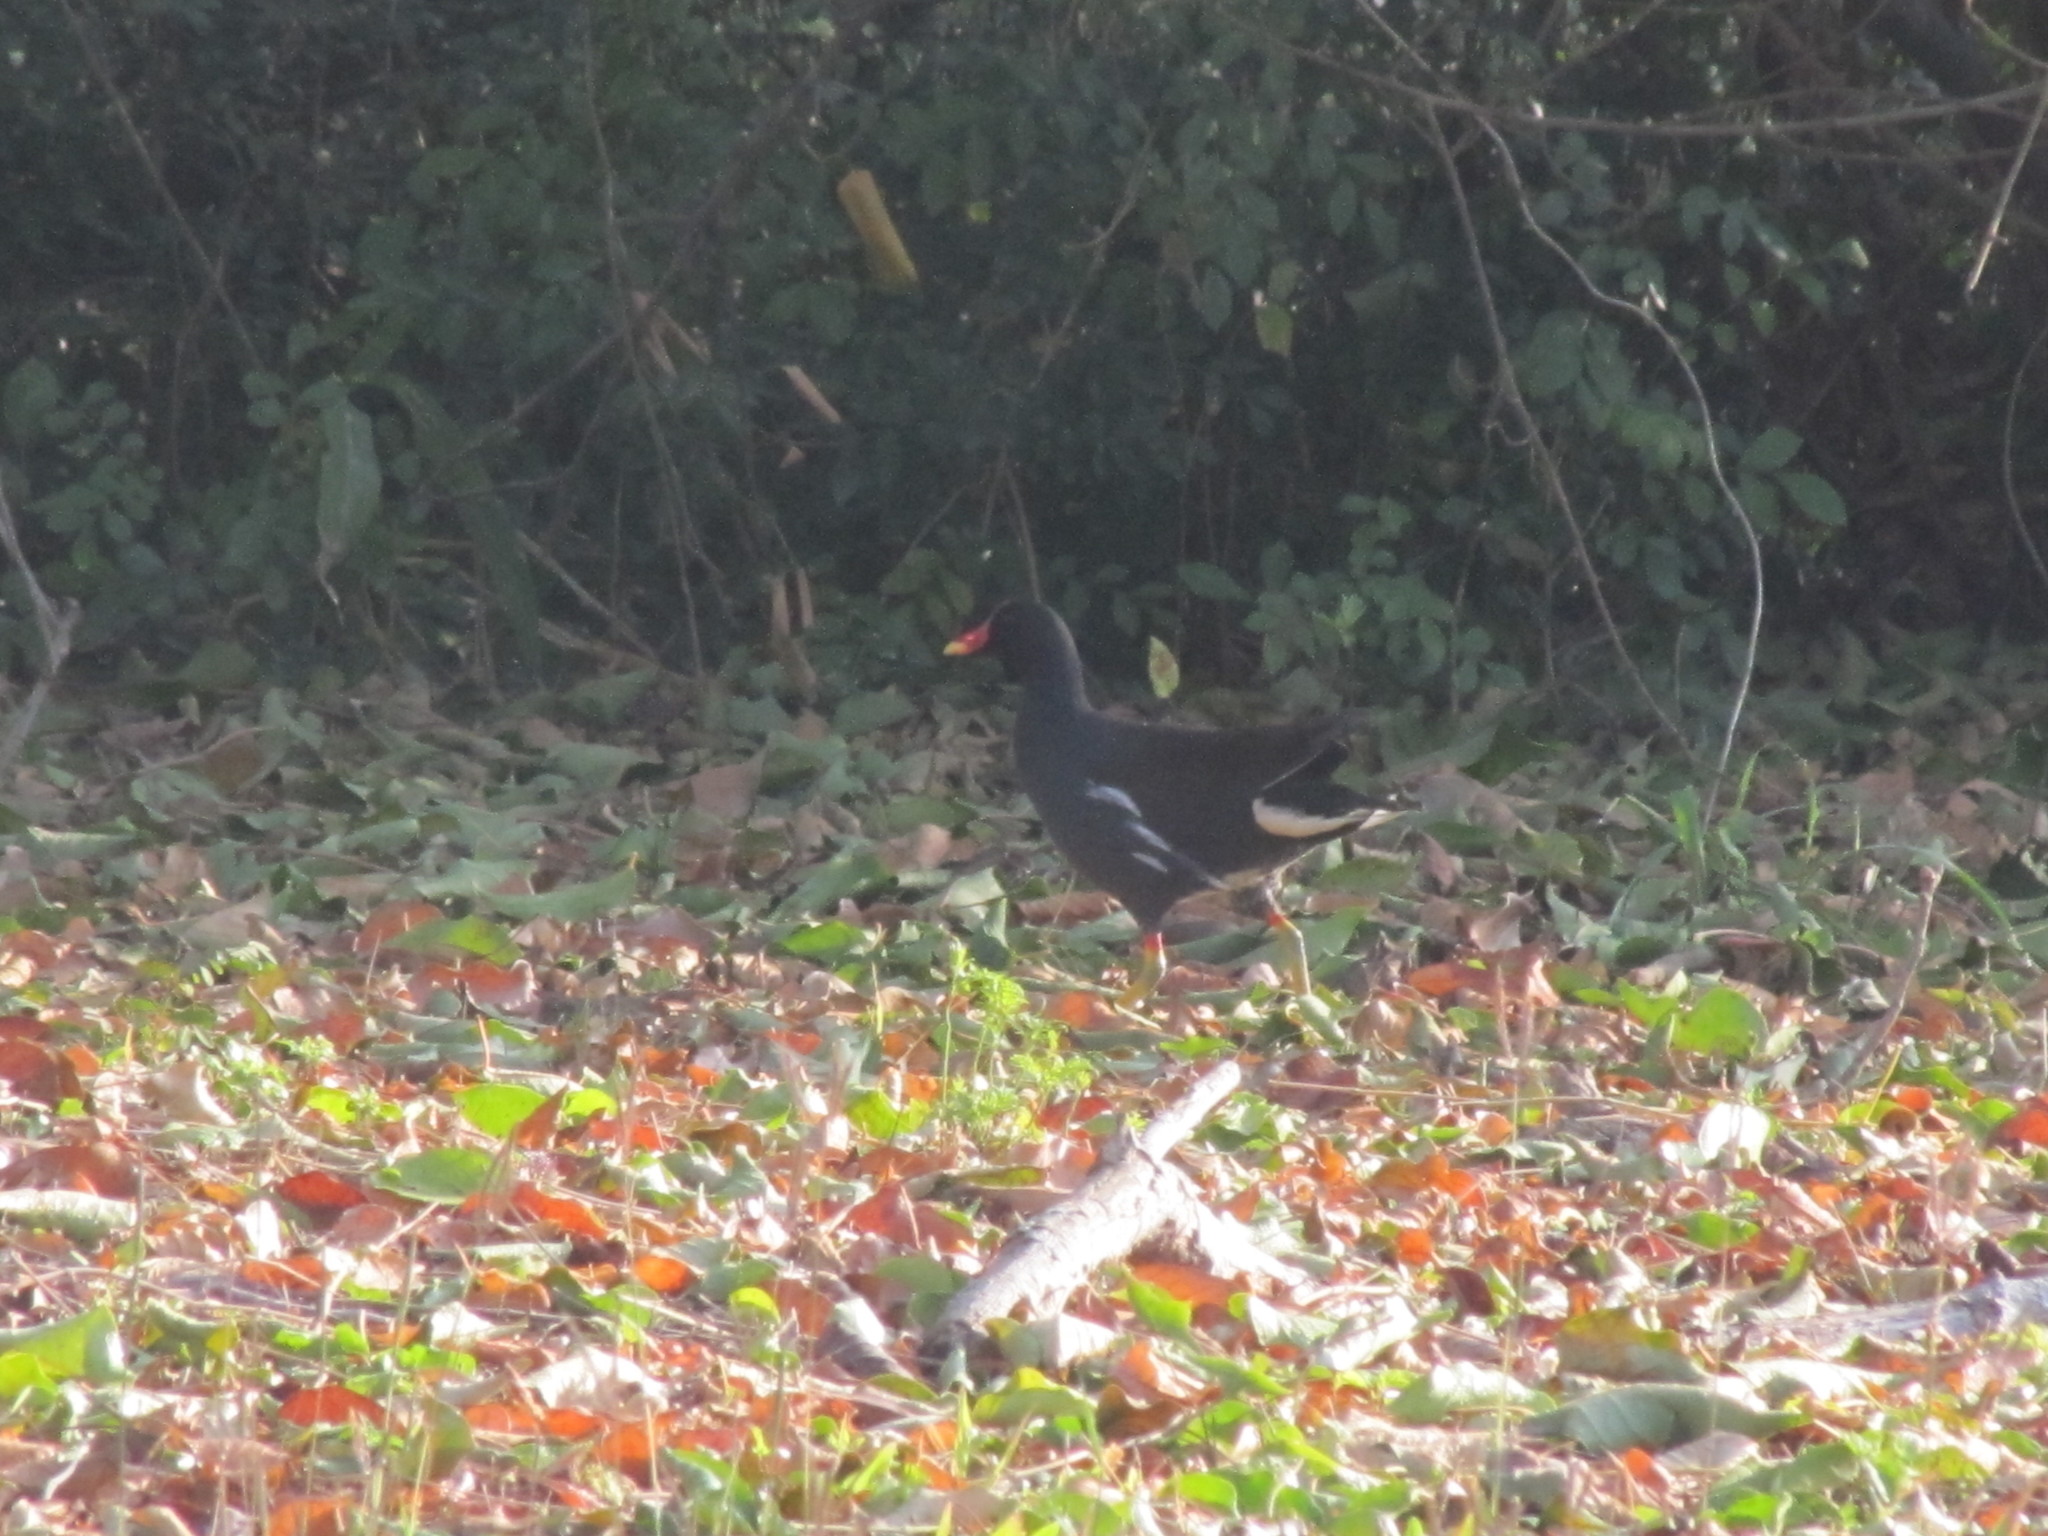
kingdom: Animalia
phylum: Chordata
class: Aves
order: Gruiformes
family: Rallidae
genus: Gallinula
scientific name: Gallinula chloropus
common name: Common moorhen
